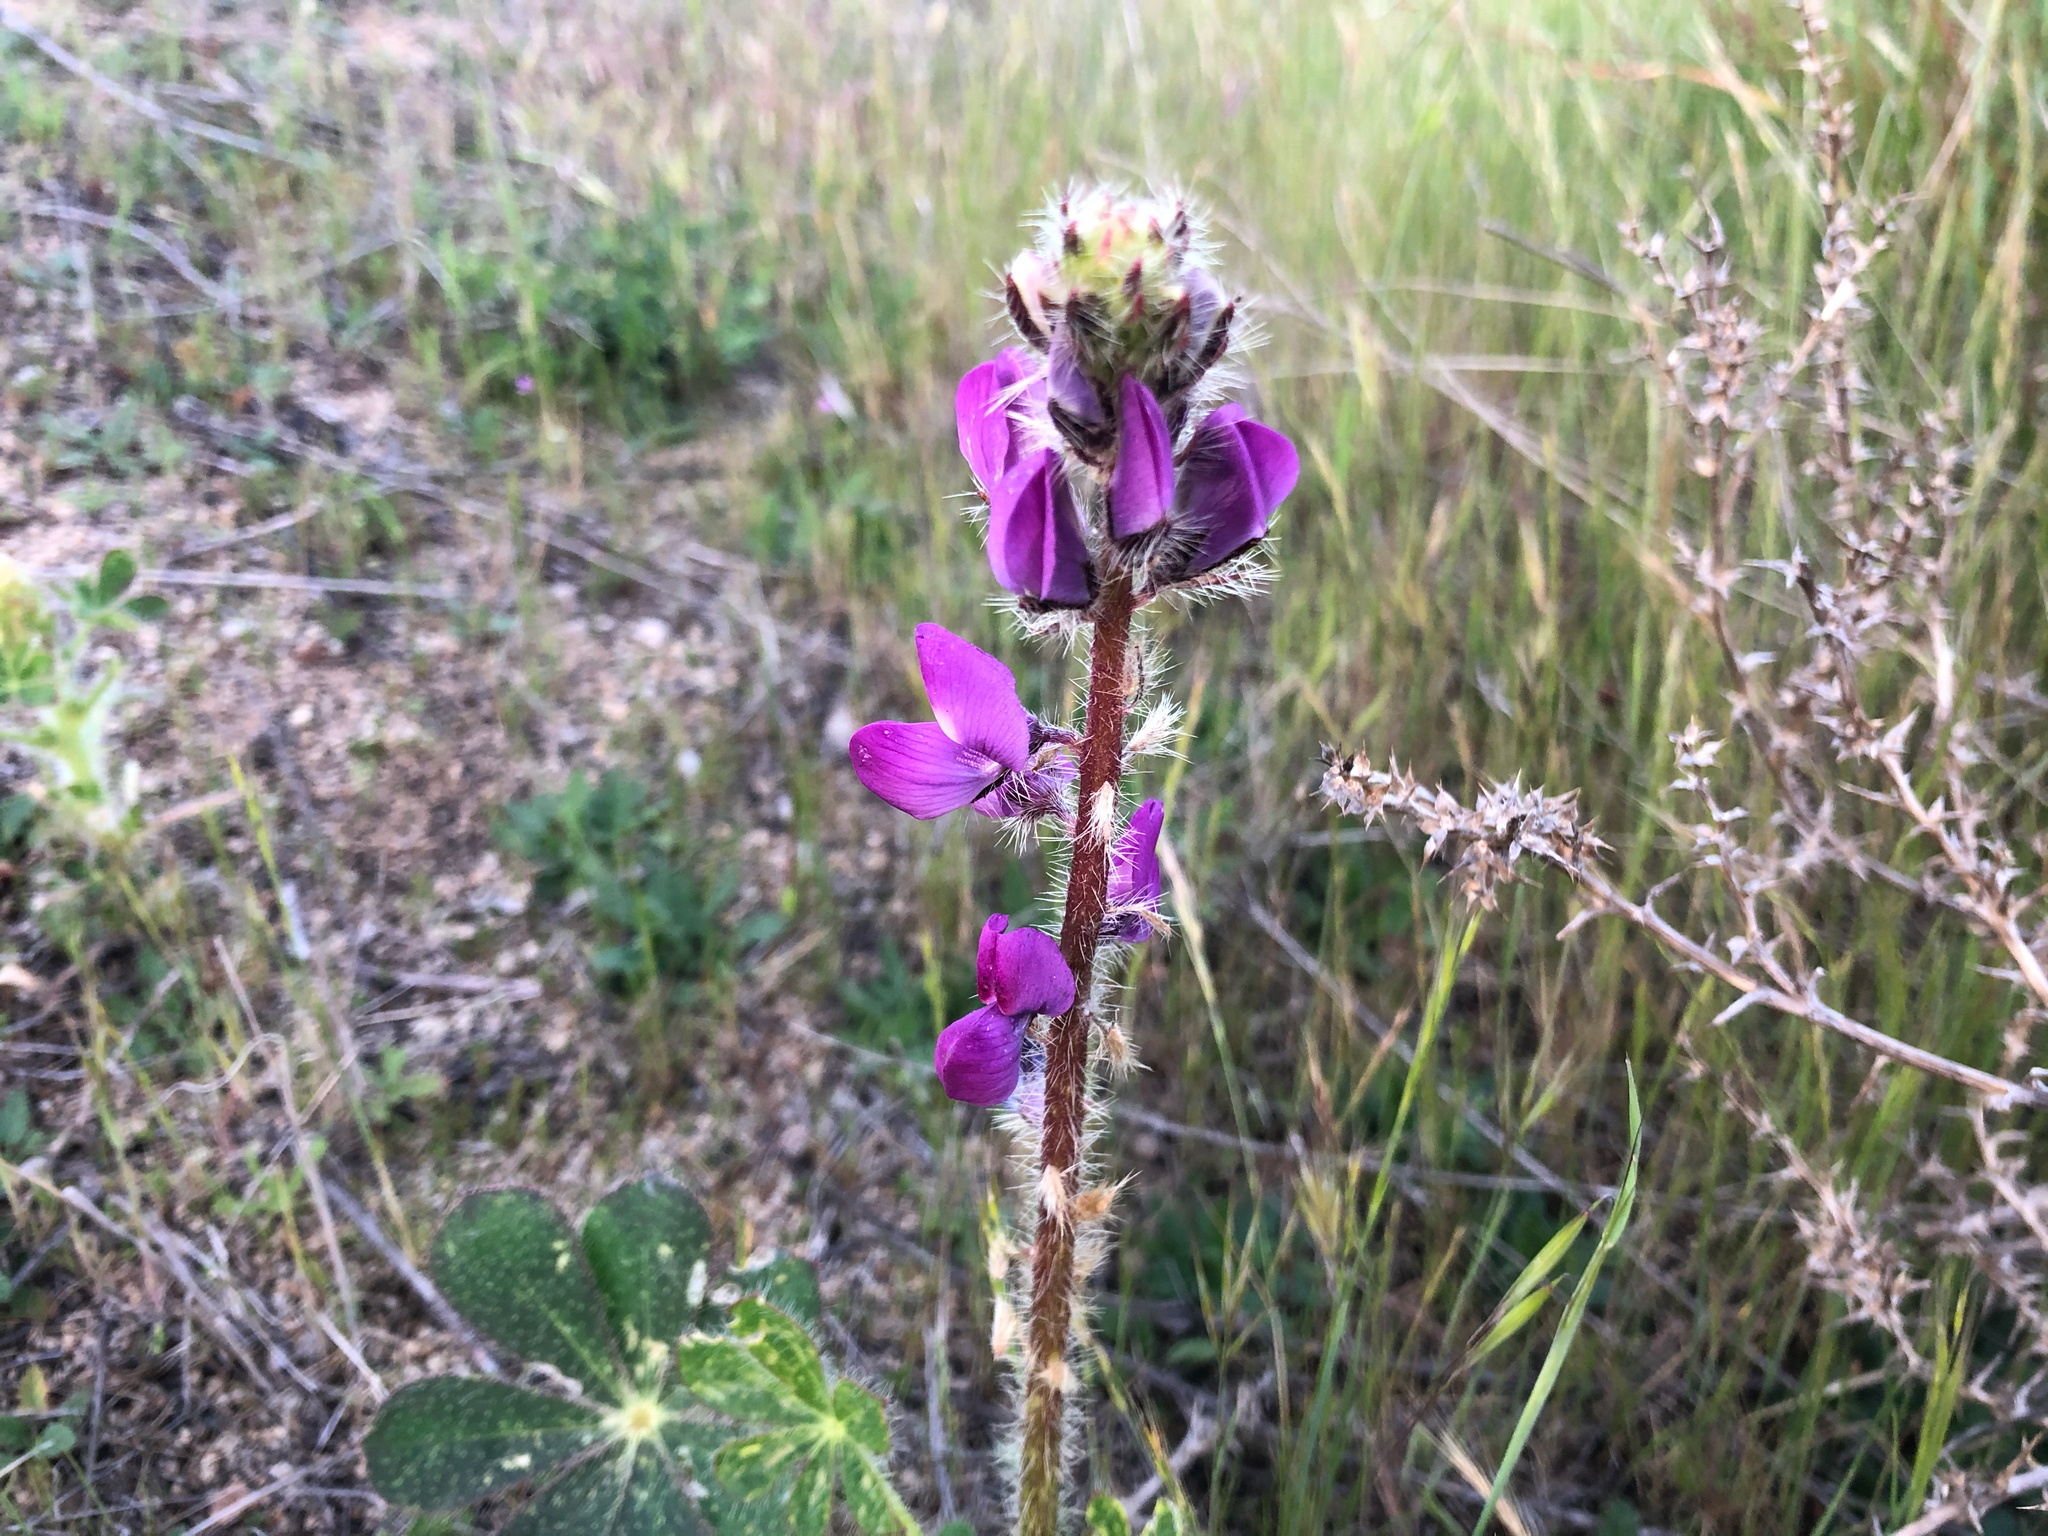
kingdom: Plantae
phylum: Tracheophyta
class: Magnoliopsida
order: Fabales
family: Fabaceae
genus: Lupinus
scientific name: Lupinus hirsutissimus
